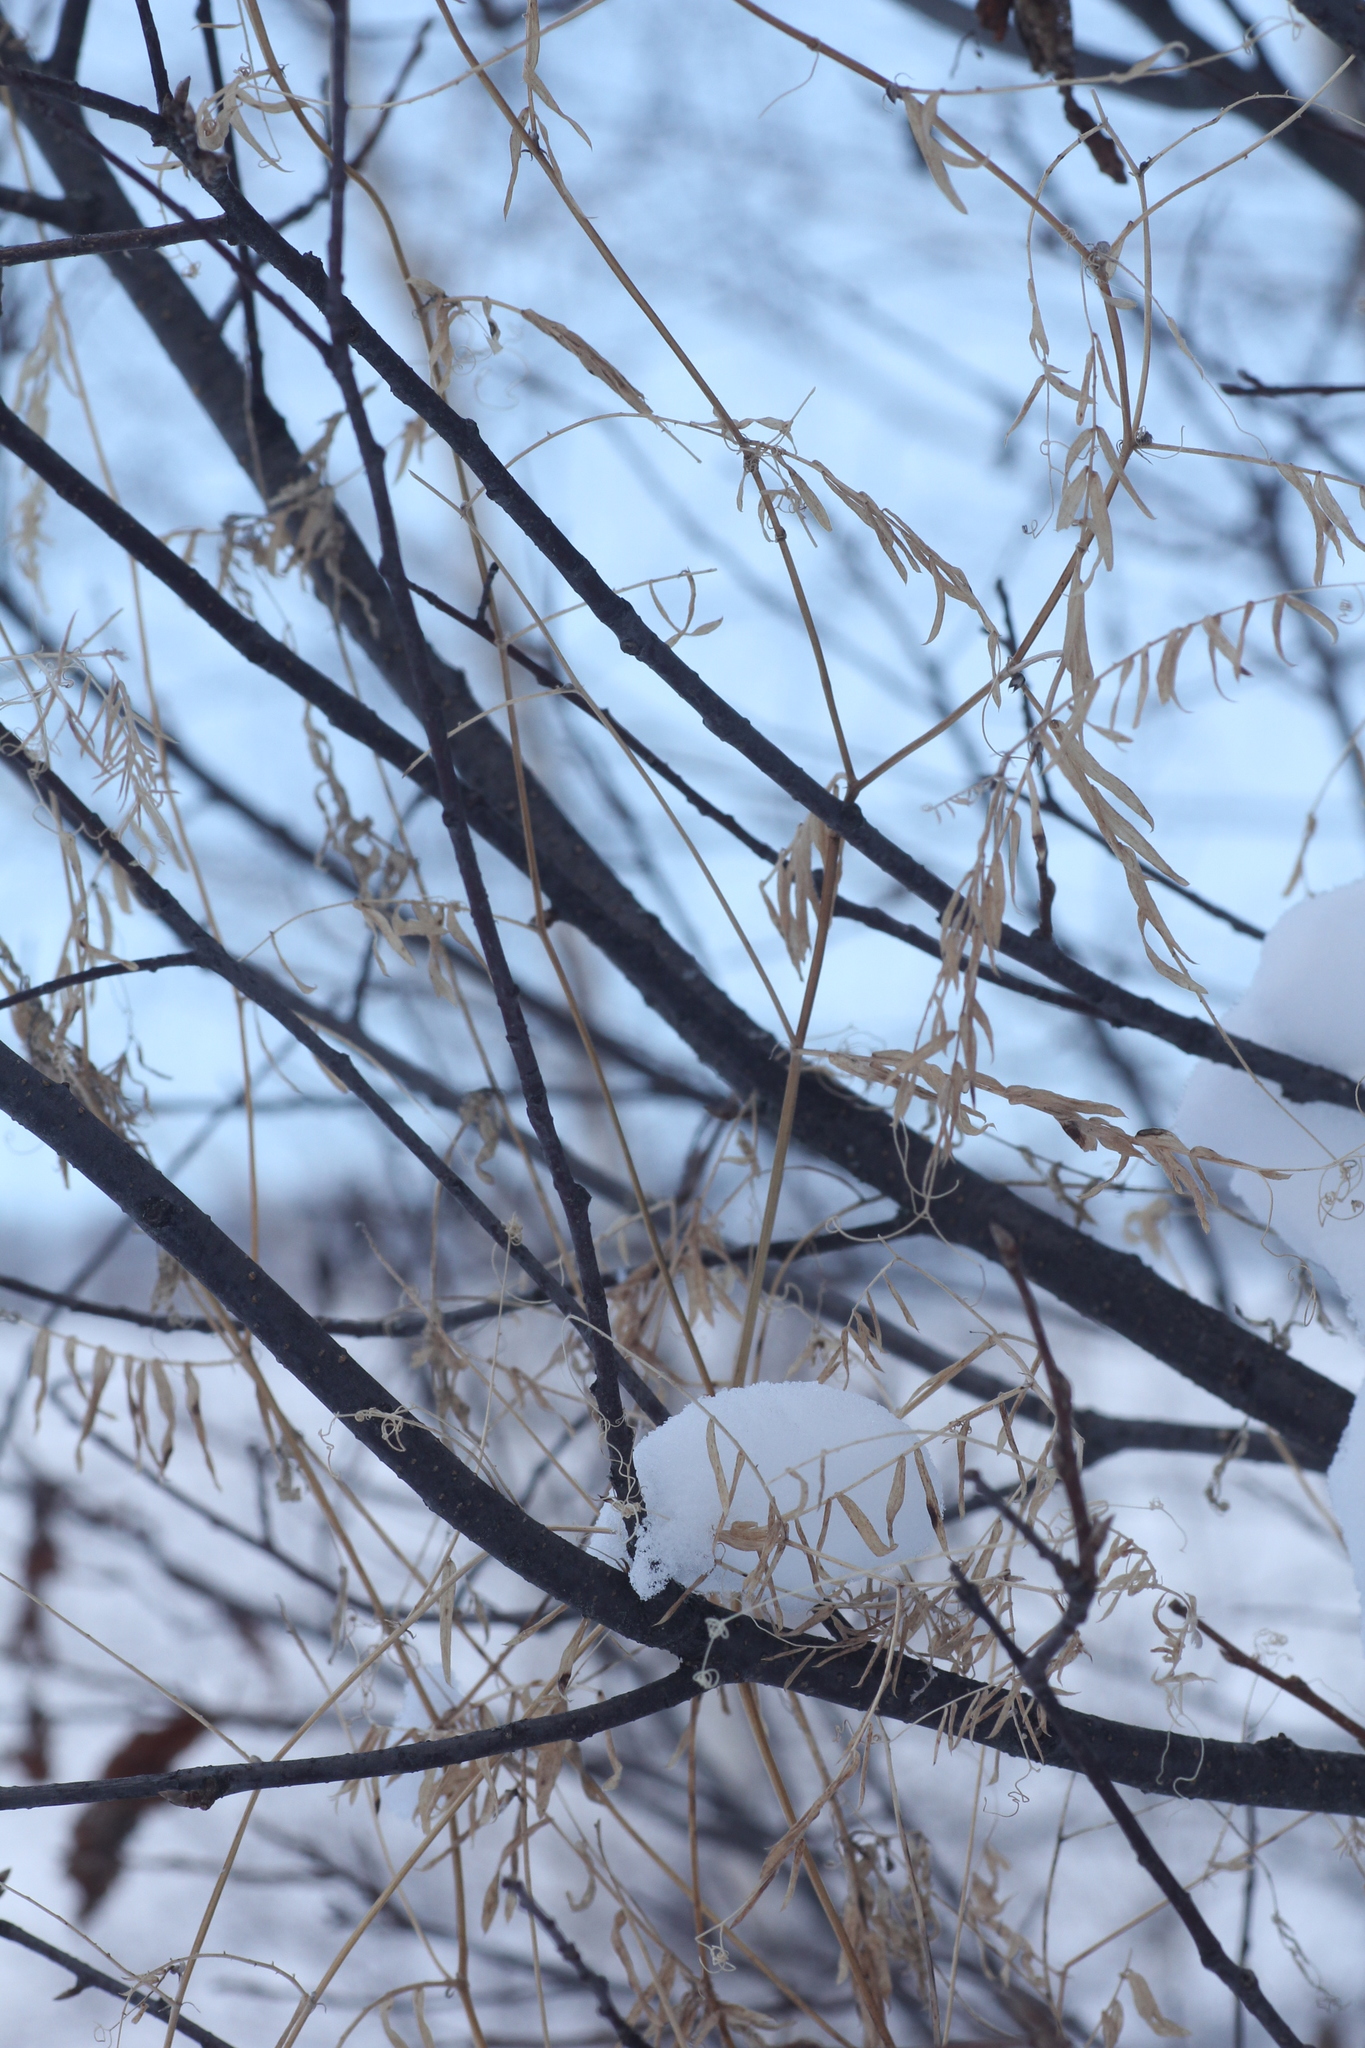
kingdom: Plantae
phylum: Tracheophyta
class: Magnoliopsida
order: Fabales
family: Fabaceae
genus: Vicia
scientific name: Vicia cracca
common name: Bird vetch
